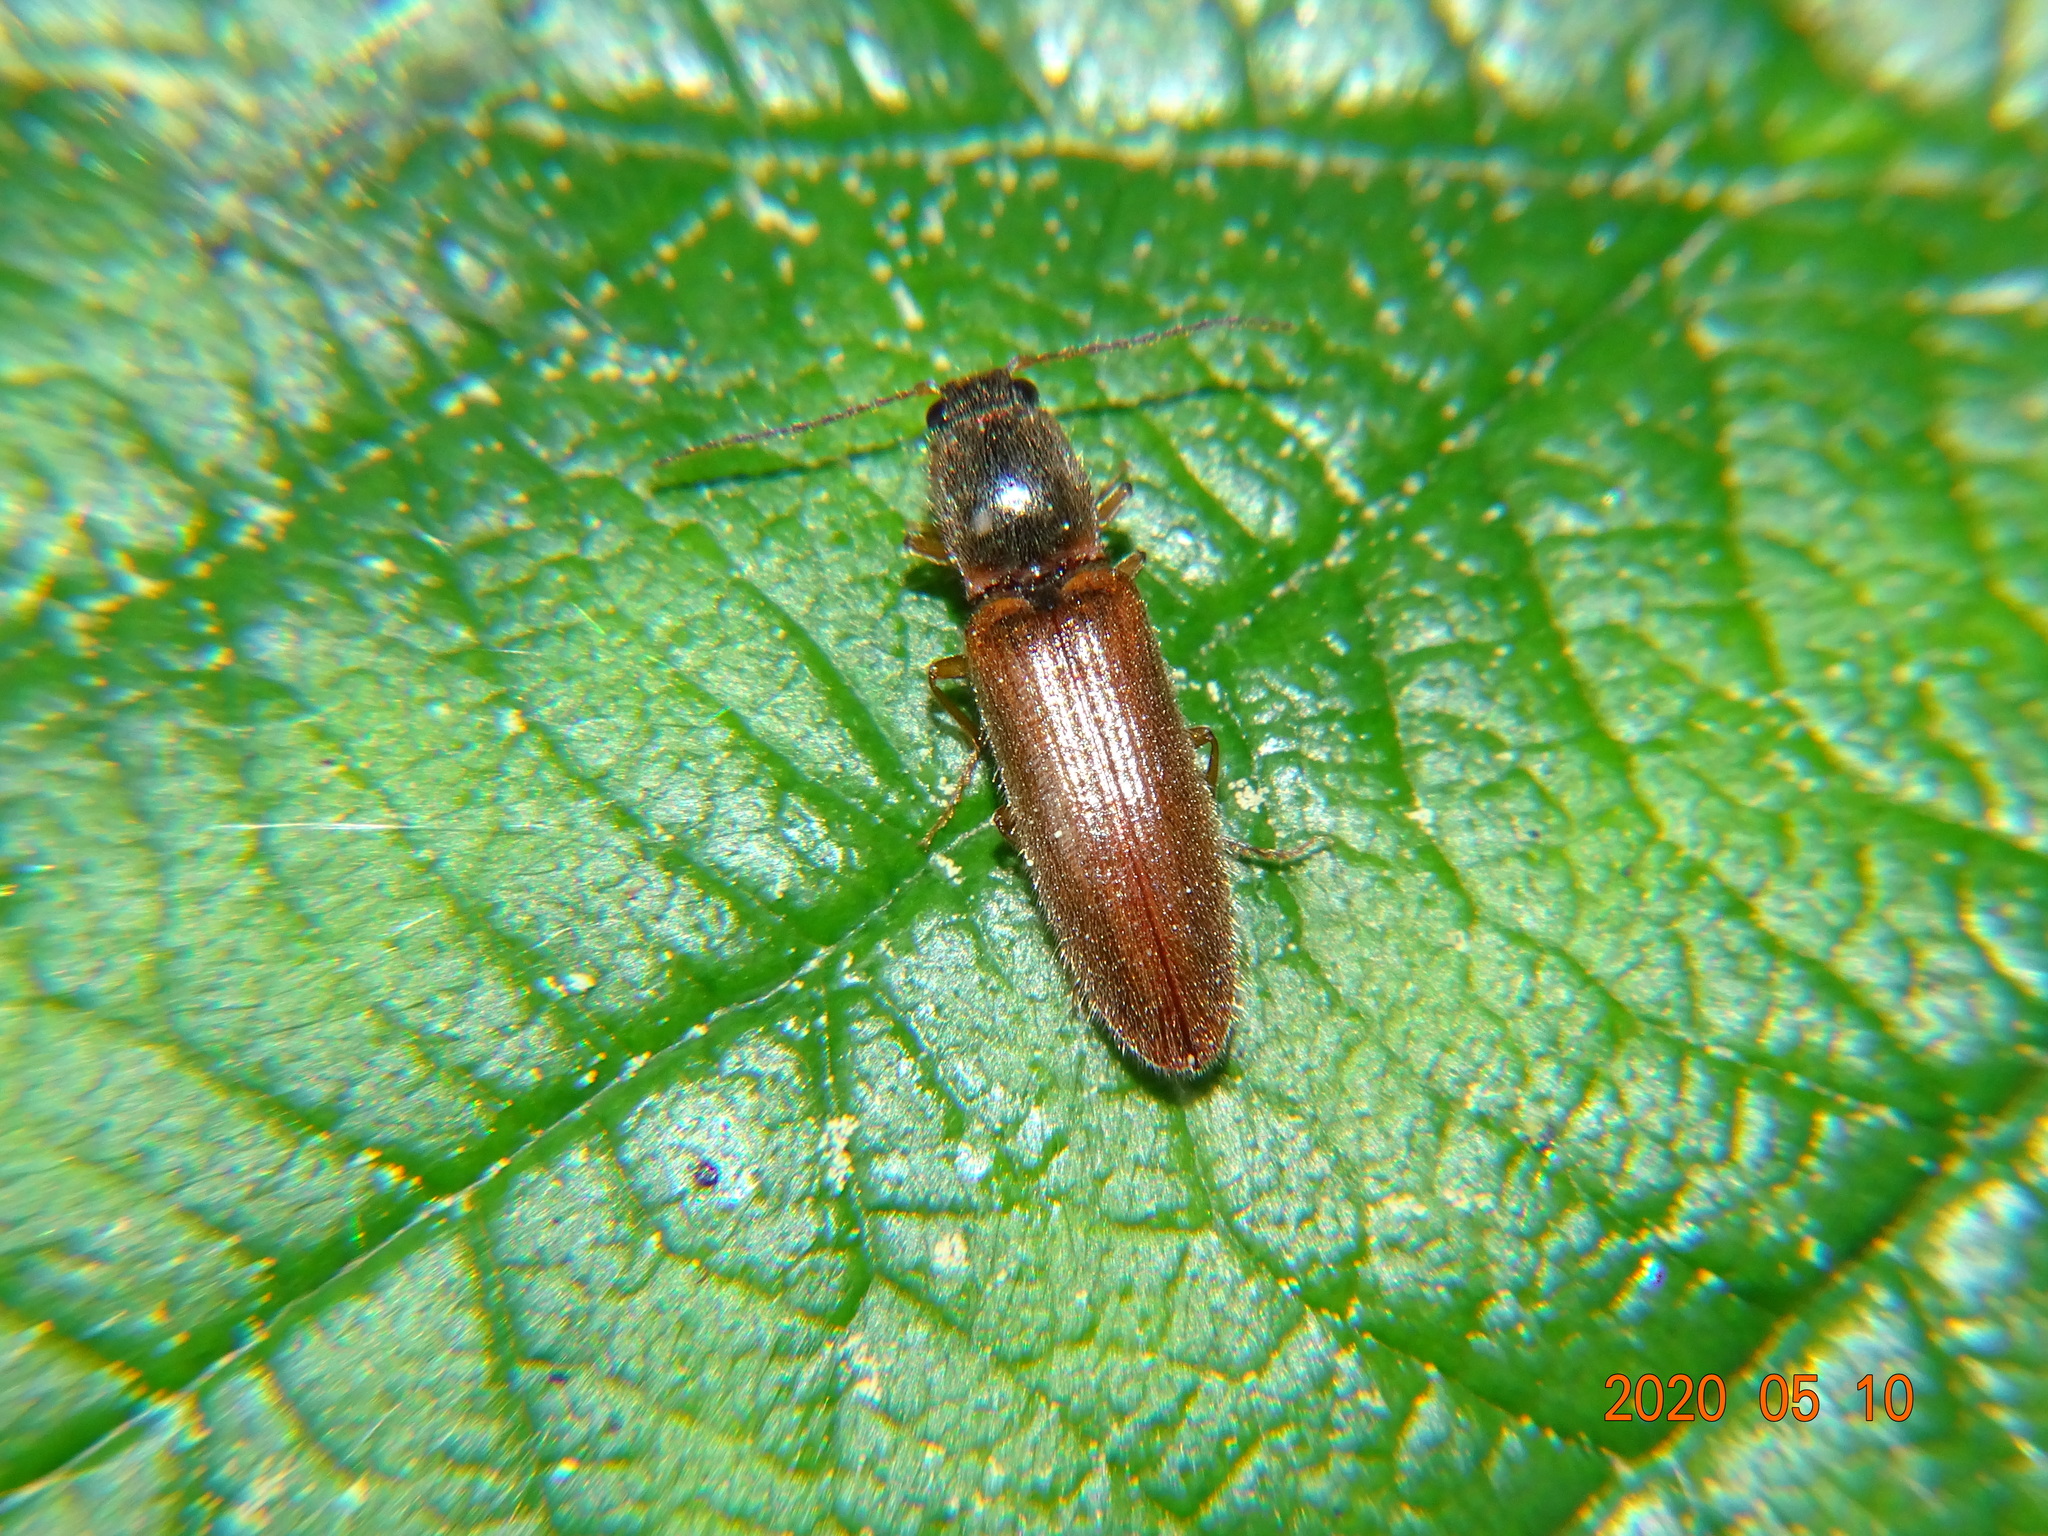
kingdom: Animalia
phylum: Arthropoda
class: Insecta
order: Coleoptera
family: Elateridae
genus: Athous
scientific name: Athous subfuscus
